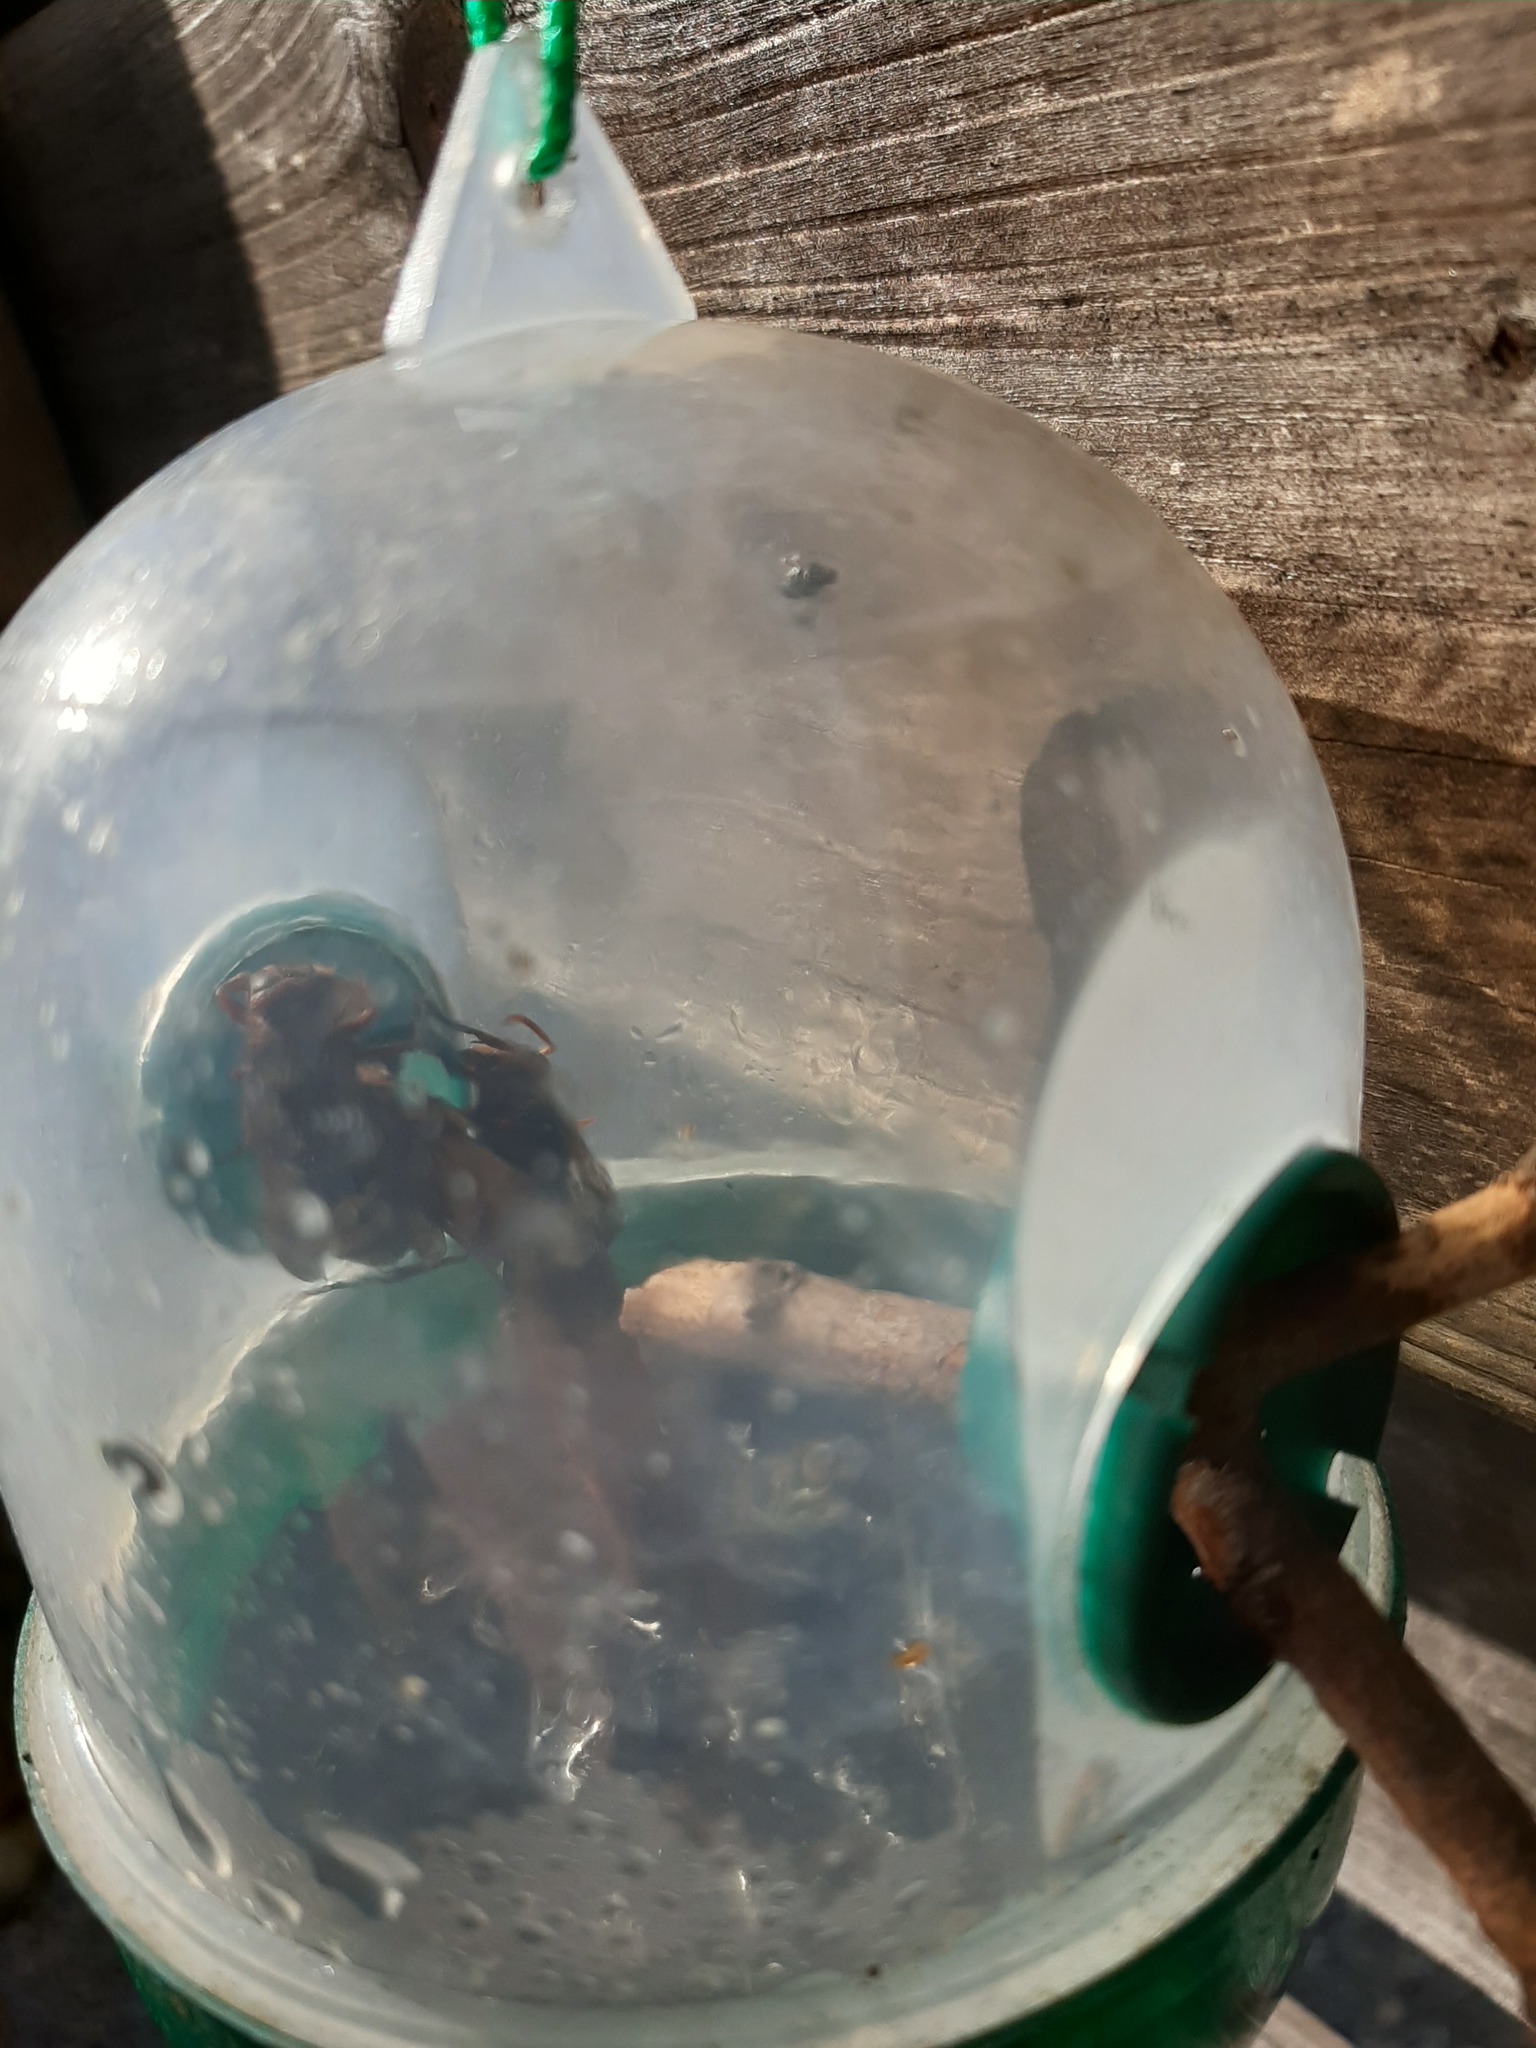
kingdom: Animalia
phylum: Arthropoda
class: Insecta
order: Hymenoptera
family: Vespidae
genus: Vespa
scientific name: Vespa crabro
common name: Hornet
